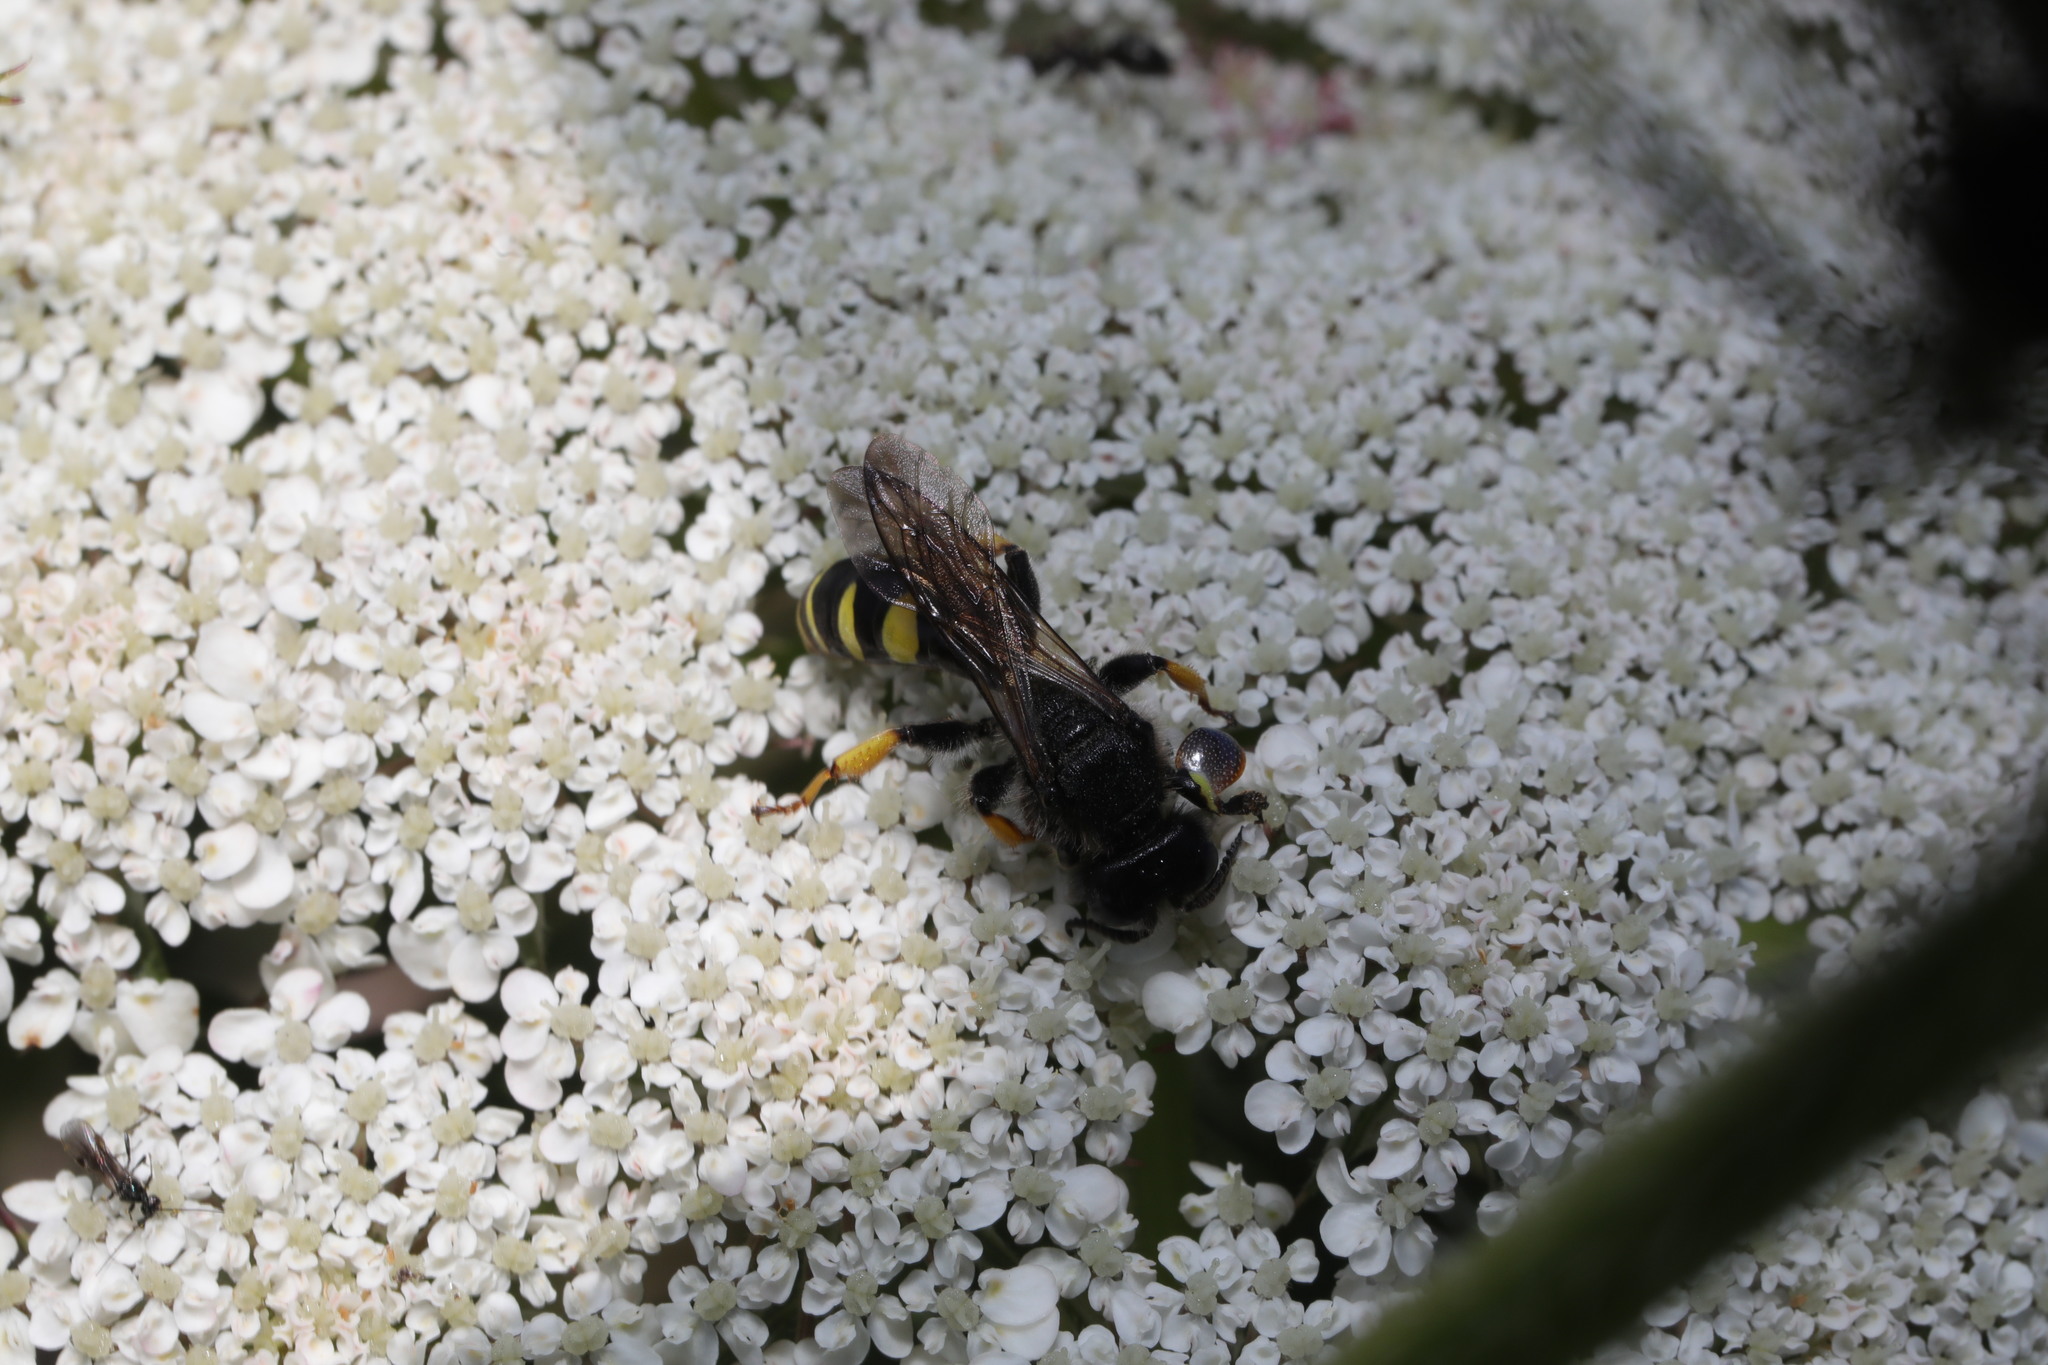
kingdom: Animalia
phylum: Arthropoda
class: Insecta
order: Hymenoptera
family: Crabronidae
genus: Crabro
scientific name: Crabro cribrarius
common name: Slender bodied digger wasp
